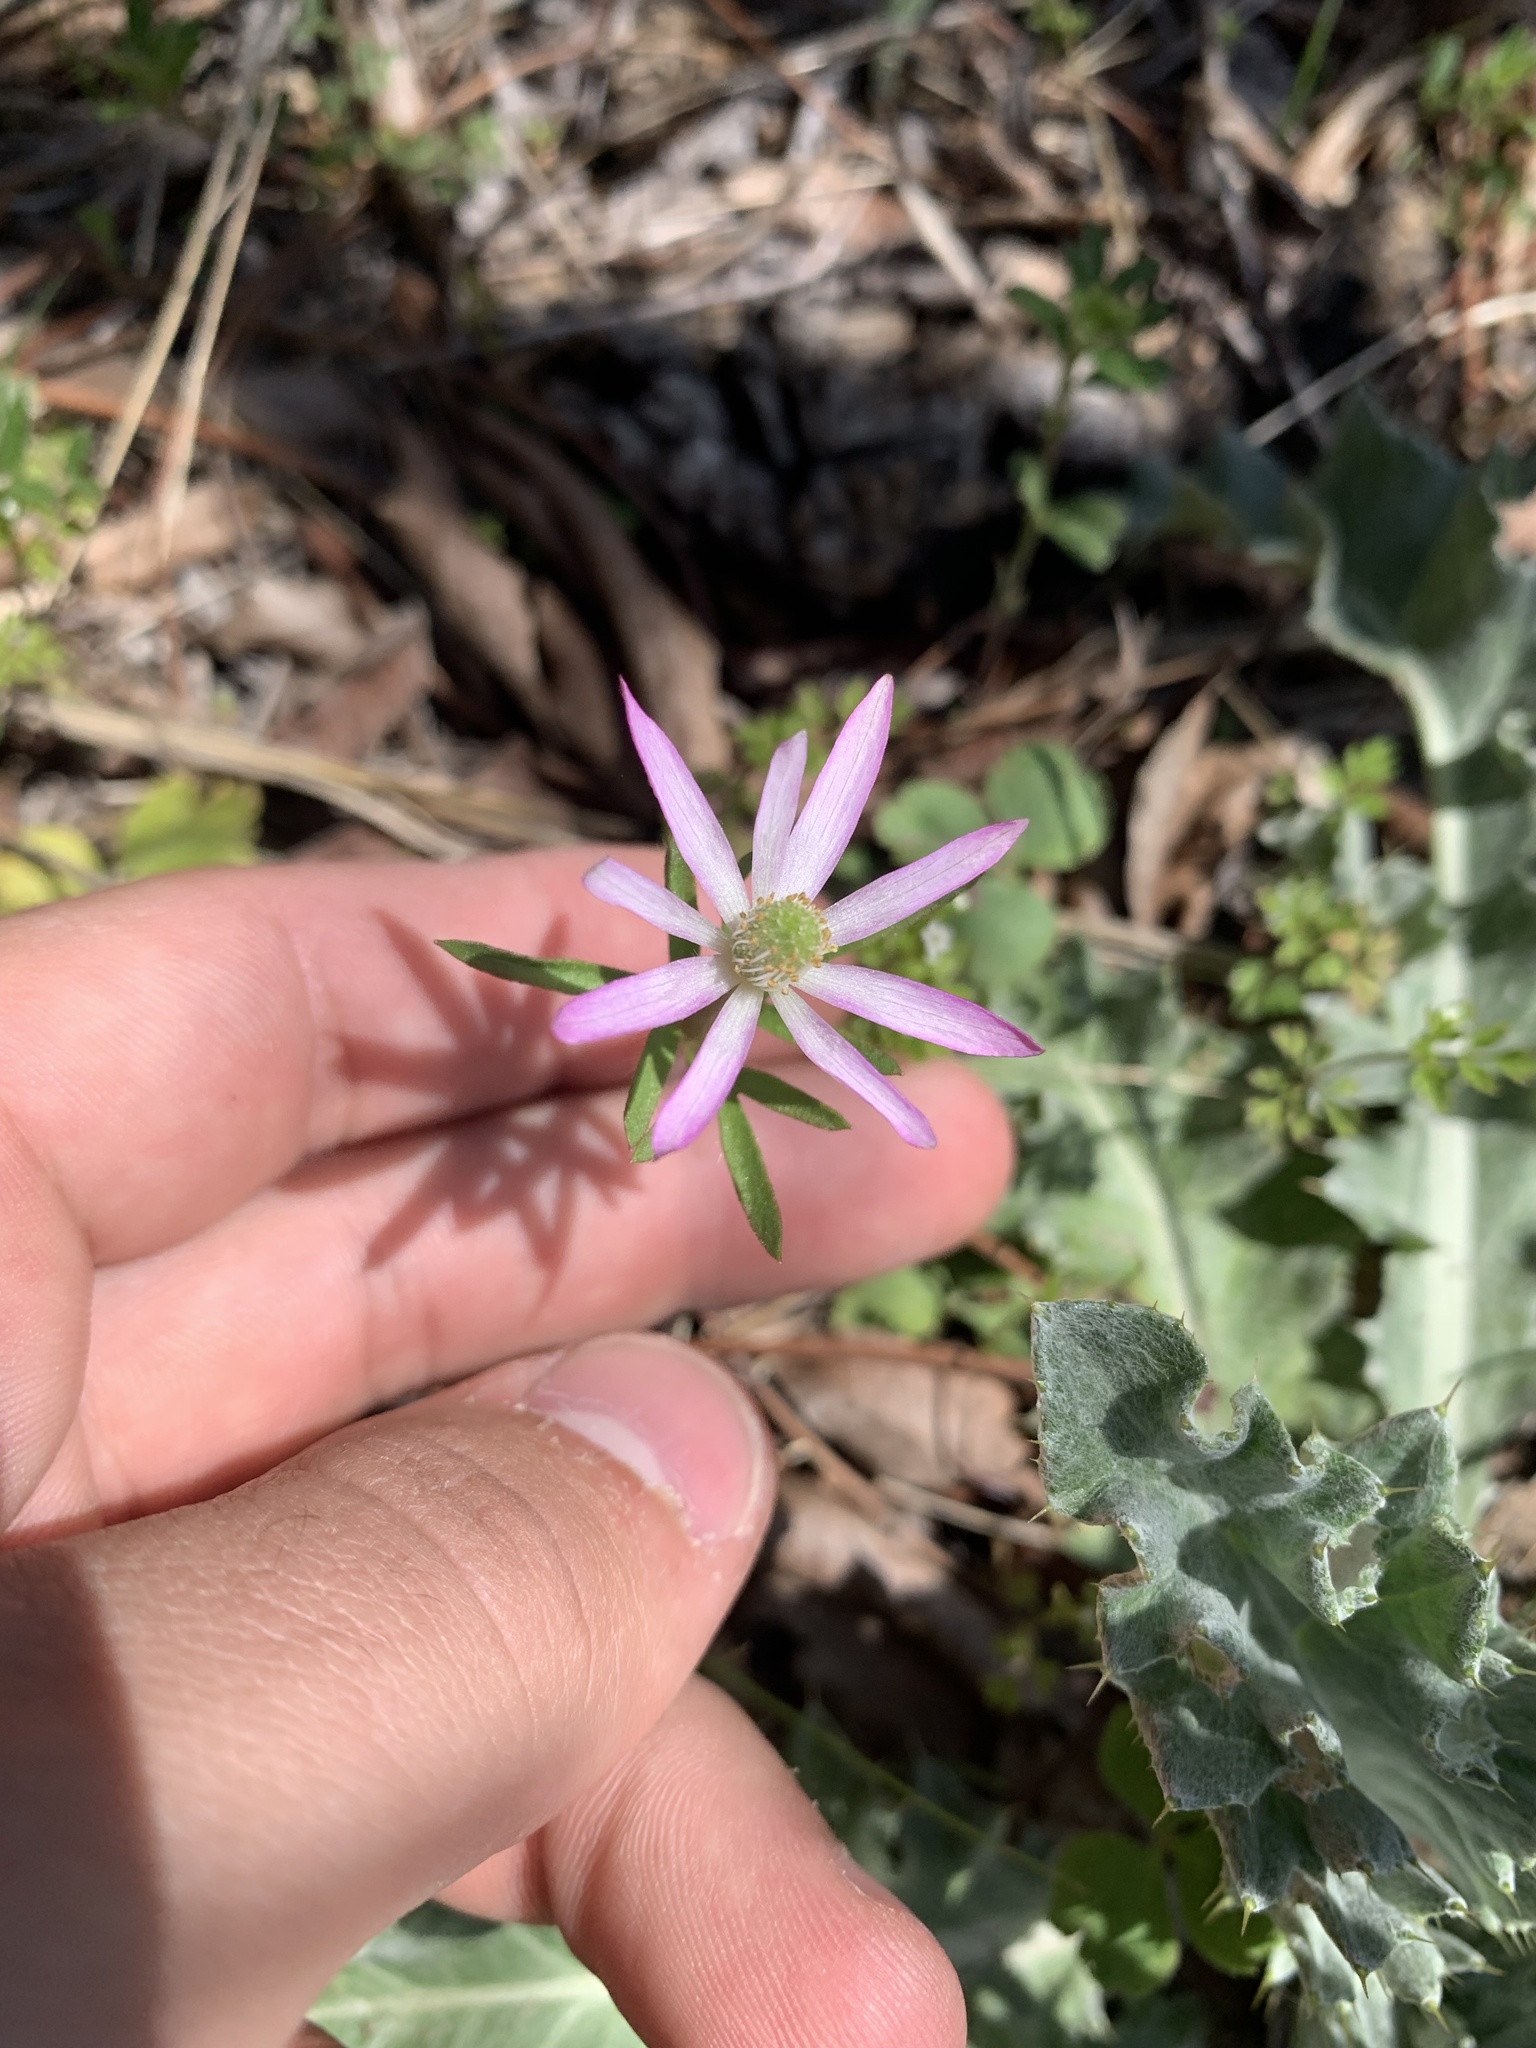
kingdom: Plantae
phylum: Tracheophyta
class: Magnoliopsida
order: Ranunculales
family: Ranunculaceae
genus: Anemone
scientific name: Anemone berlandieri
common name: Ten-petal anemone
